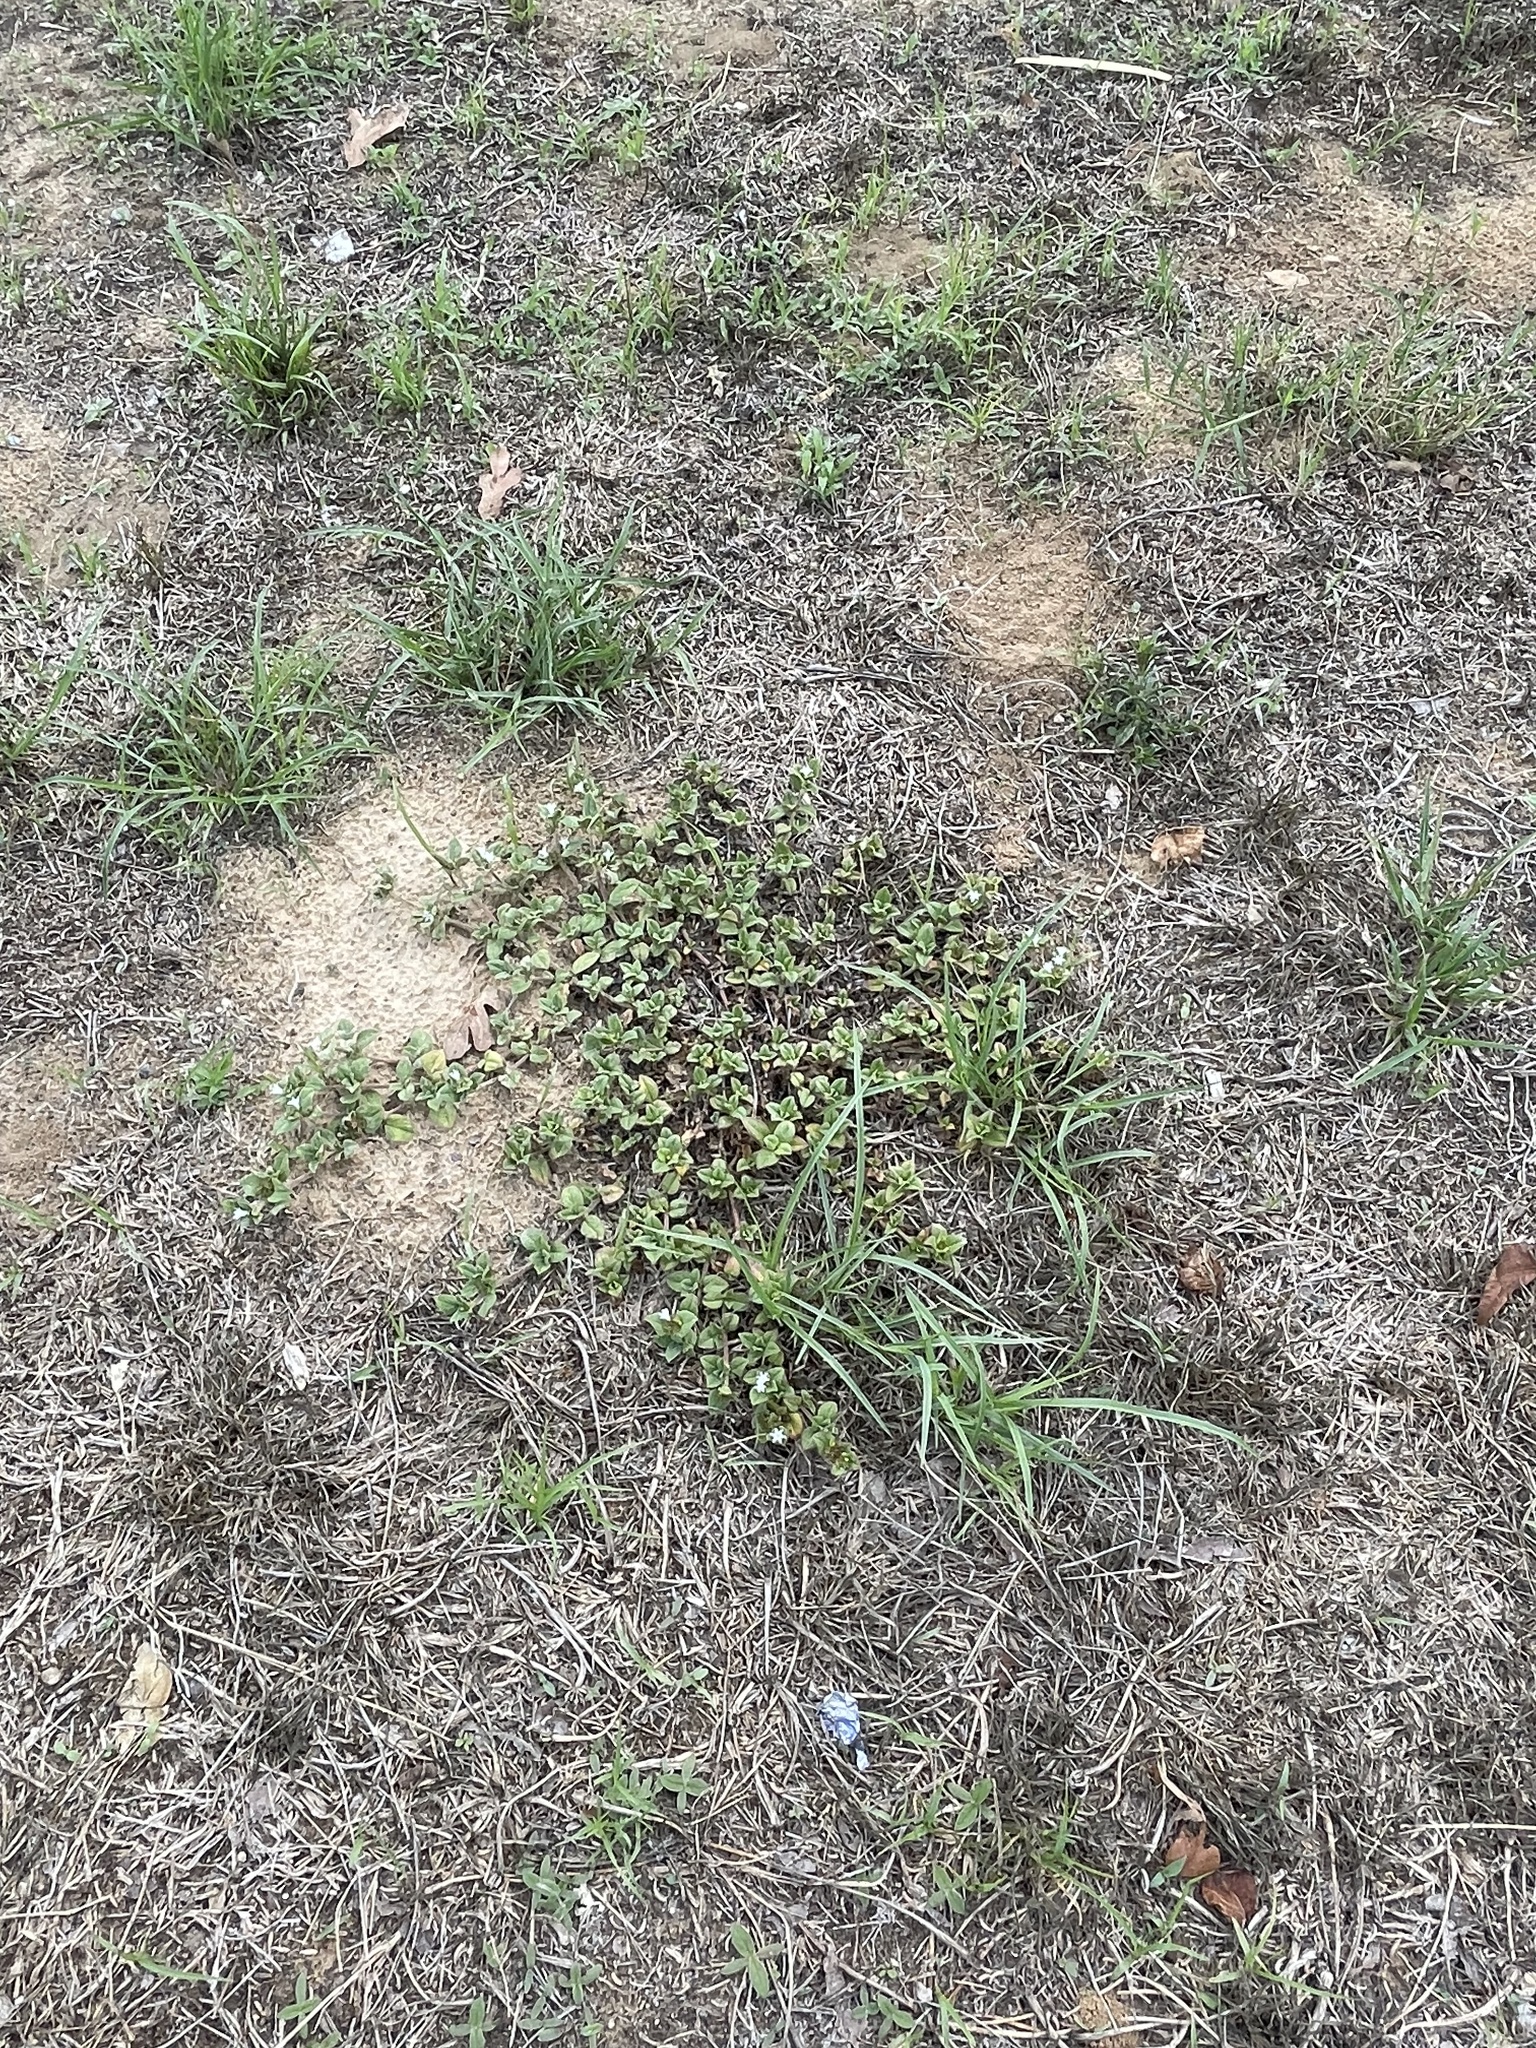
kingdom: Plantae
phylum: Tracheophyta
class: Magnoliopsida
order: Gentianales
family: Rubiaceae
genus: Richardia
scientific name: Richardia brasiliensis
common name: Tropical mexican clover
